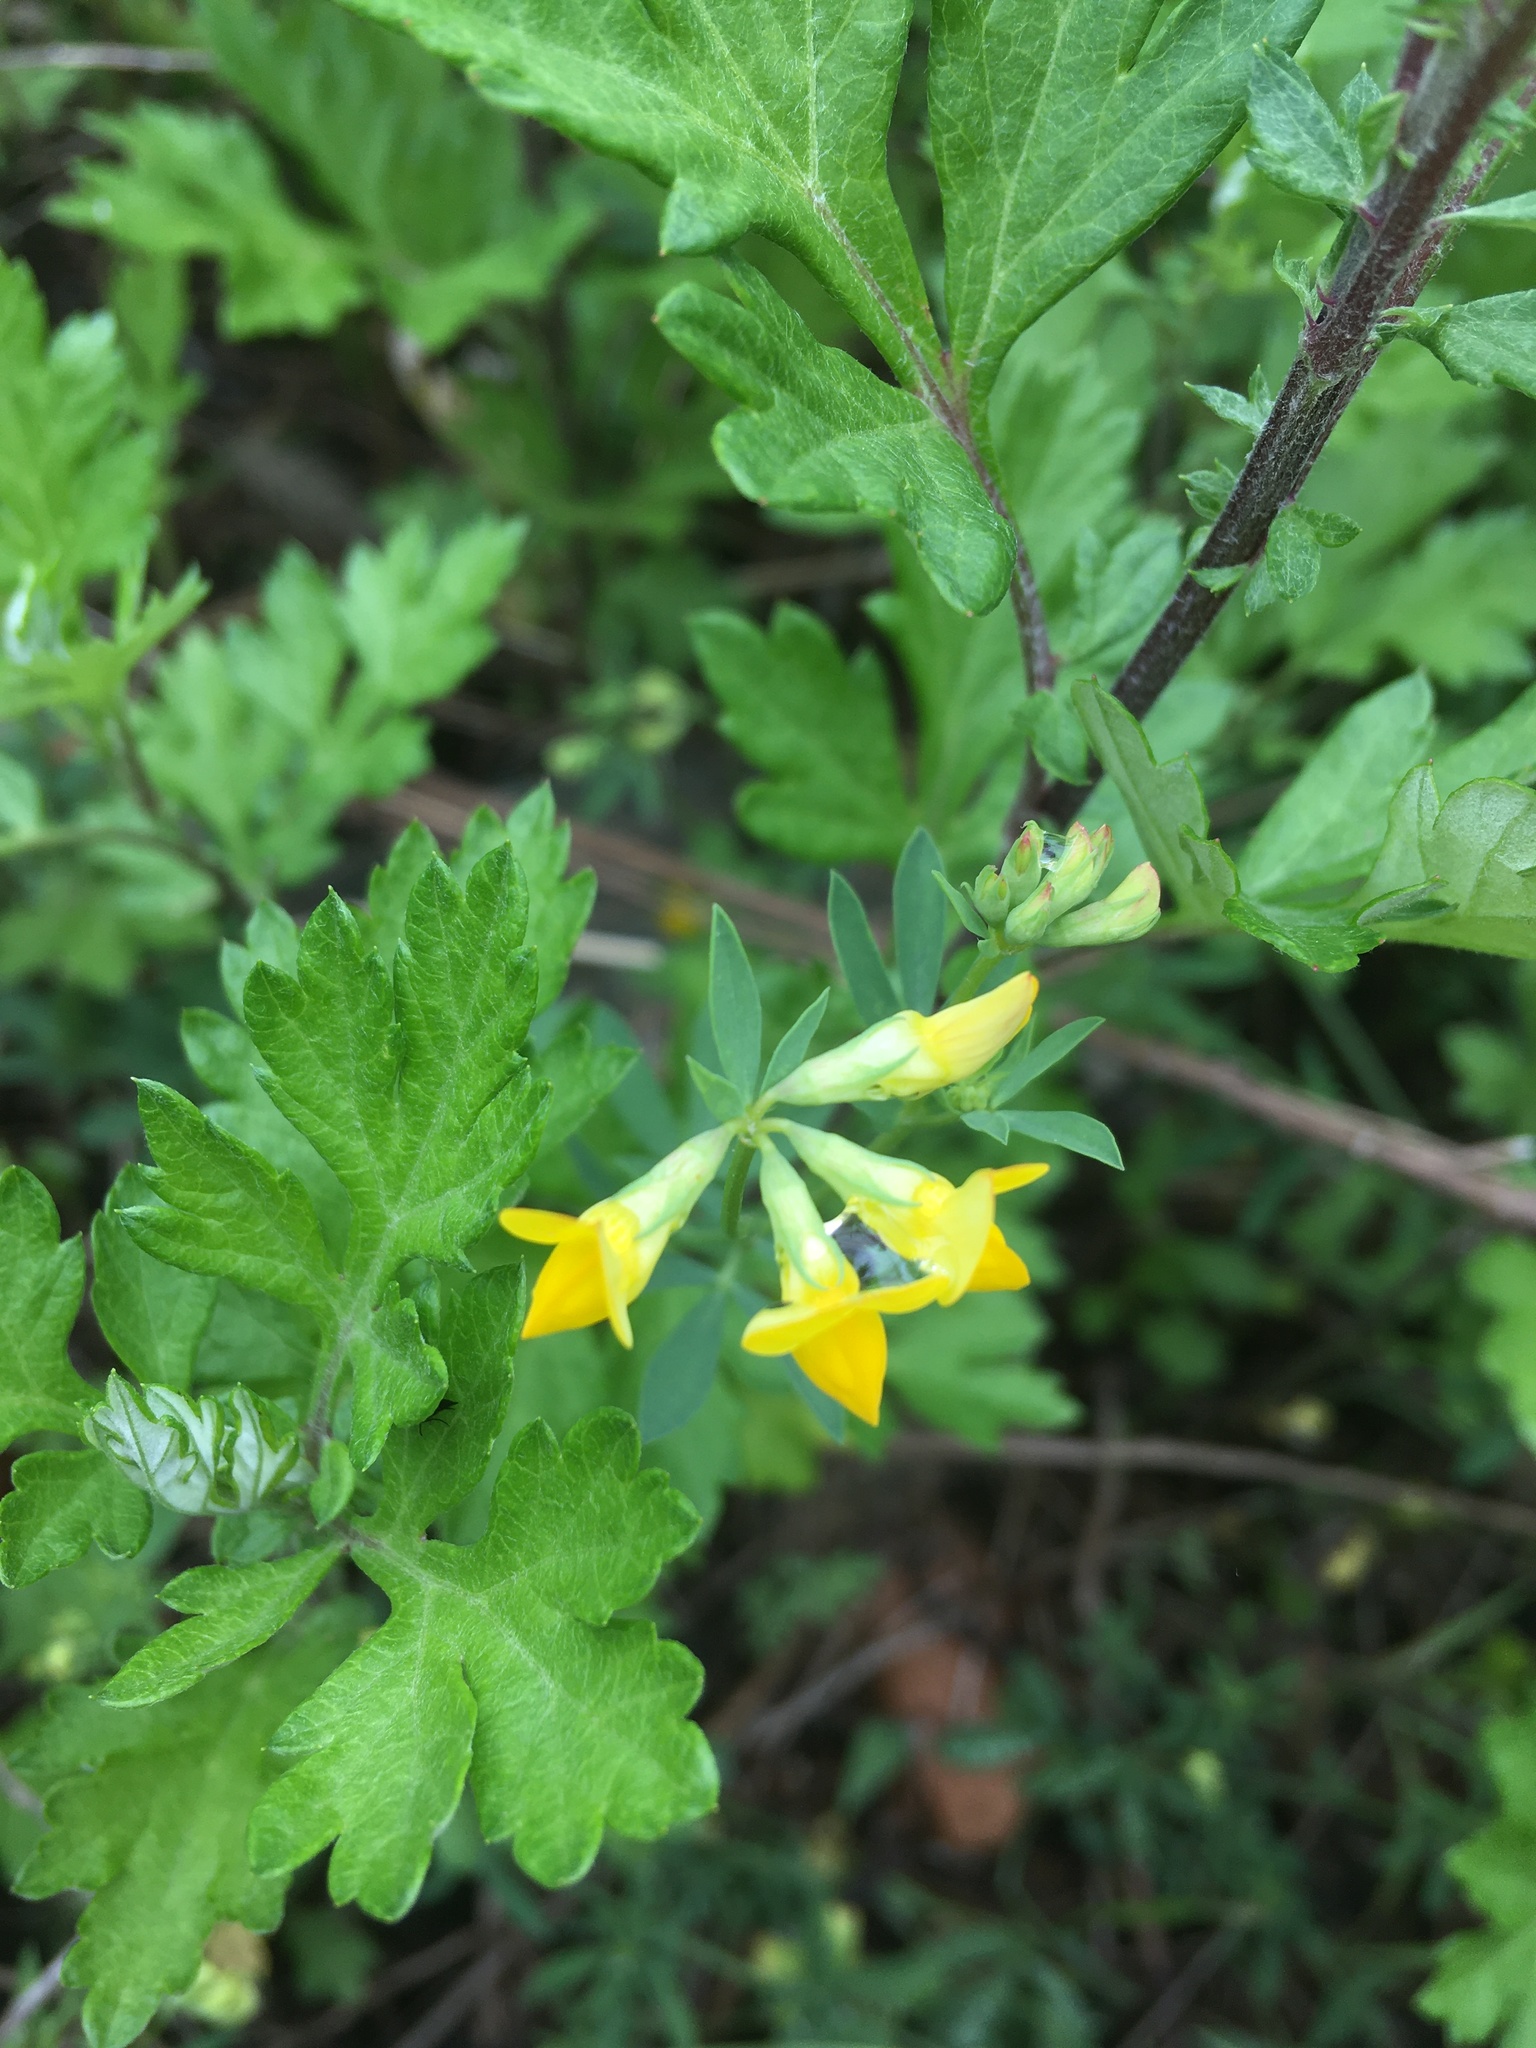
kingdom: Plantae
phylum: Tracheophyta
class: Magnoliopsida
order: Fabales
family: Fabaceae
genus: Lotus
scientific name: Lotus corniculatus
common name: Common bird's-foot-trefoil
